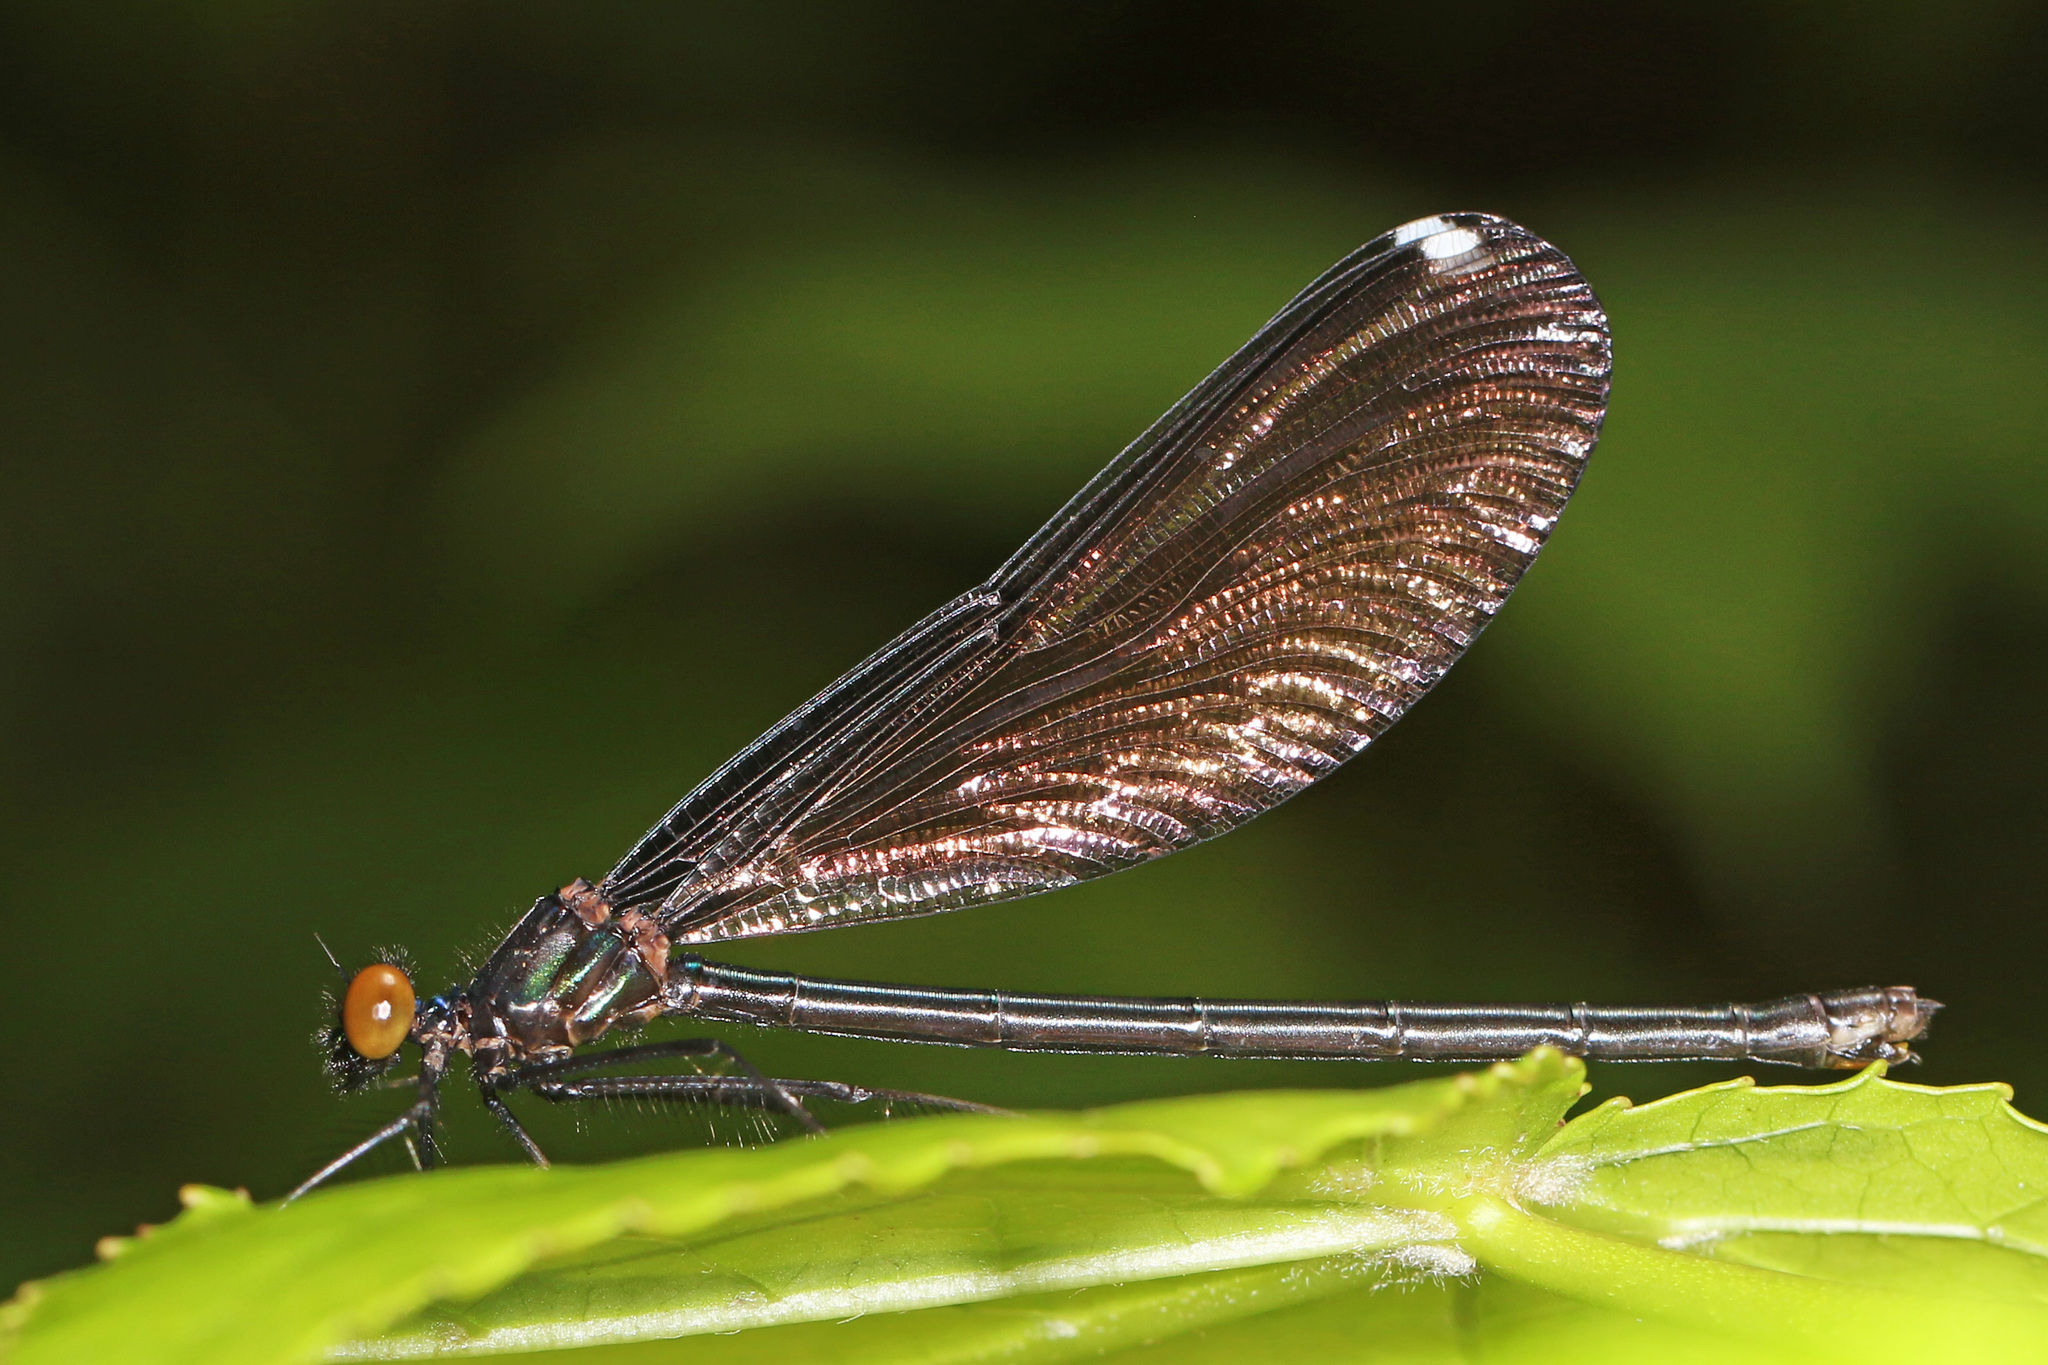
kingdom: Animalia
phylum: Arthropoda
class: Insecta
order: Odonata
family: Calopterygidae
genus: Calopteryx
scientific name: Calopteryx maculata
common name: Ebony jewelwing
